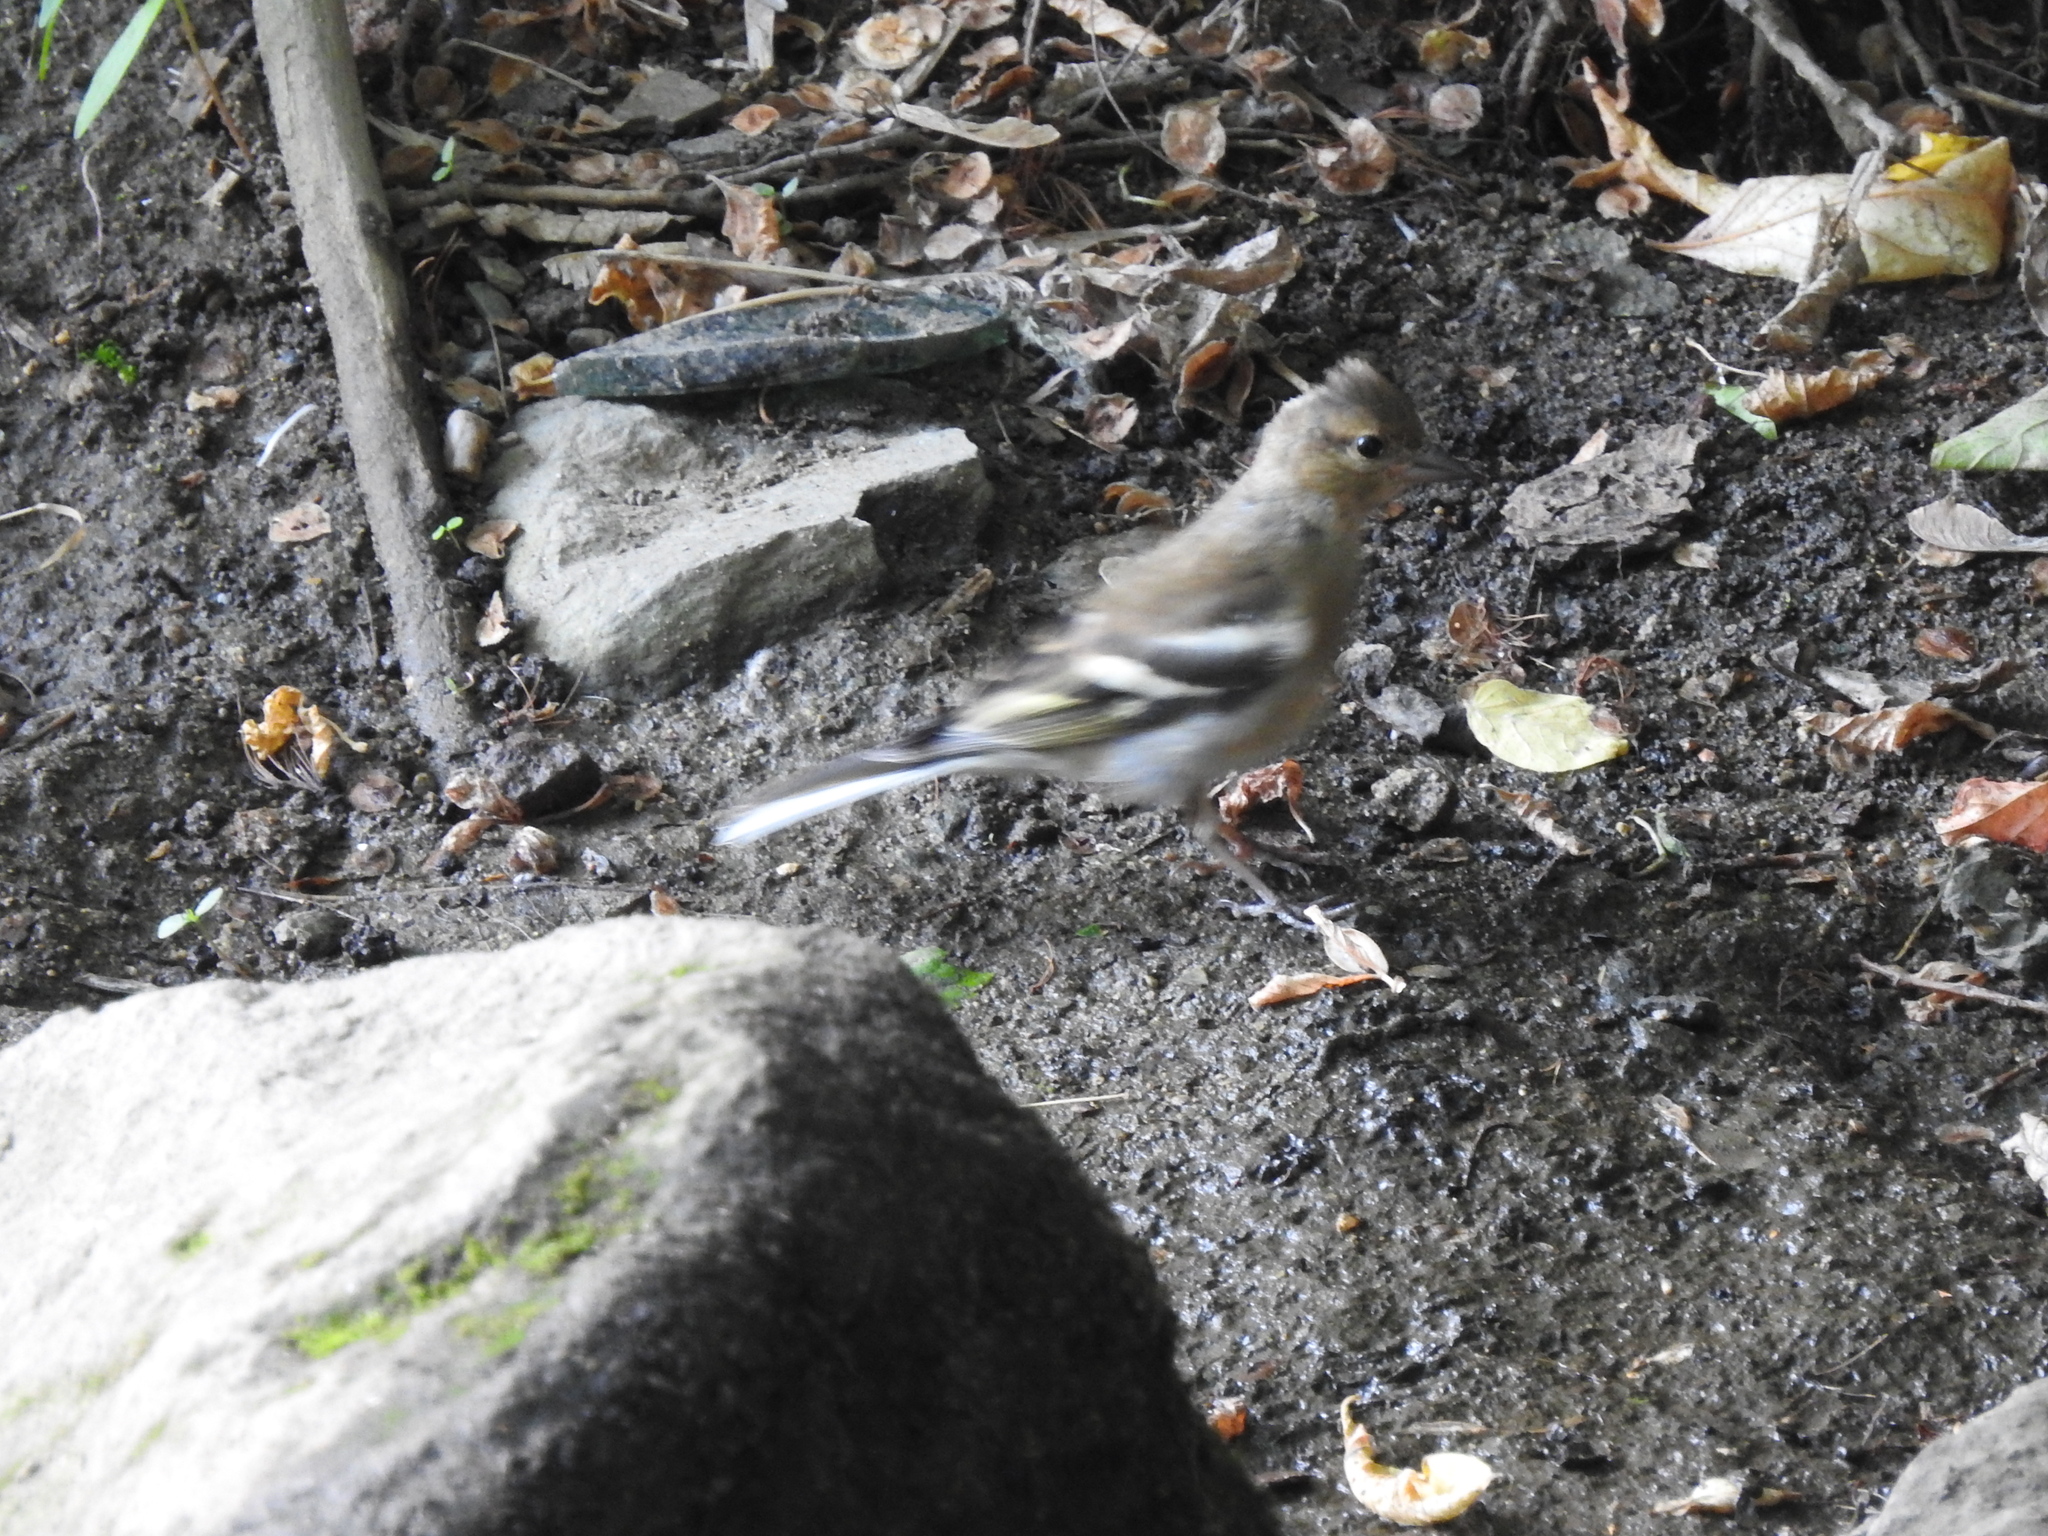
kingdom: Animalia
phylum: Chordata
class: Aves
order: Passeriformes
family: Fringillidae
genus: Fringilla
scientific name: Fringilla coelebs
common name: Common chaffinch
